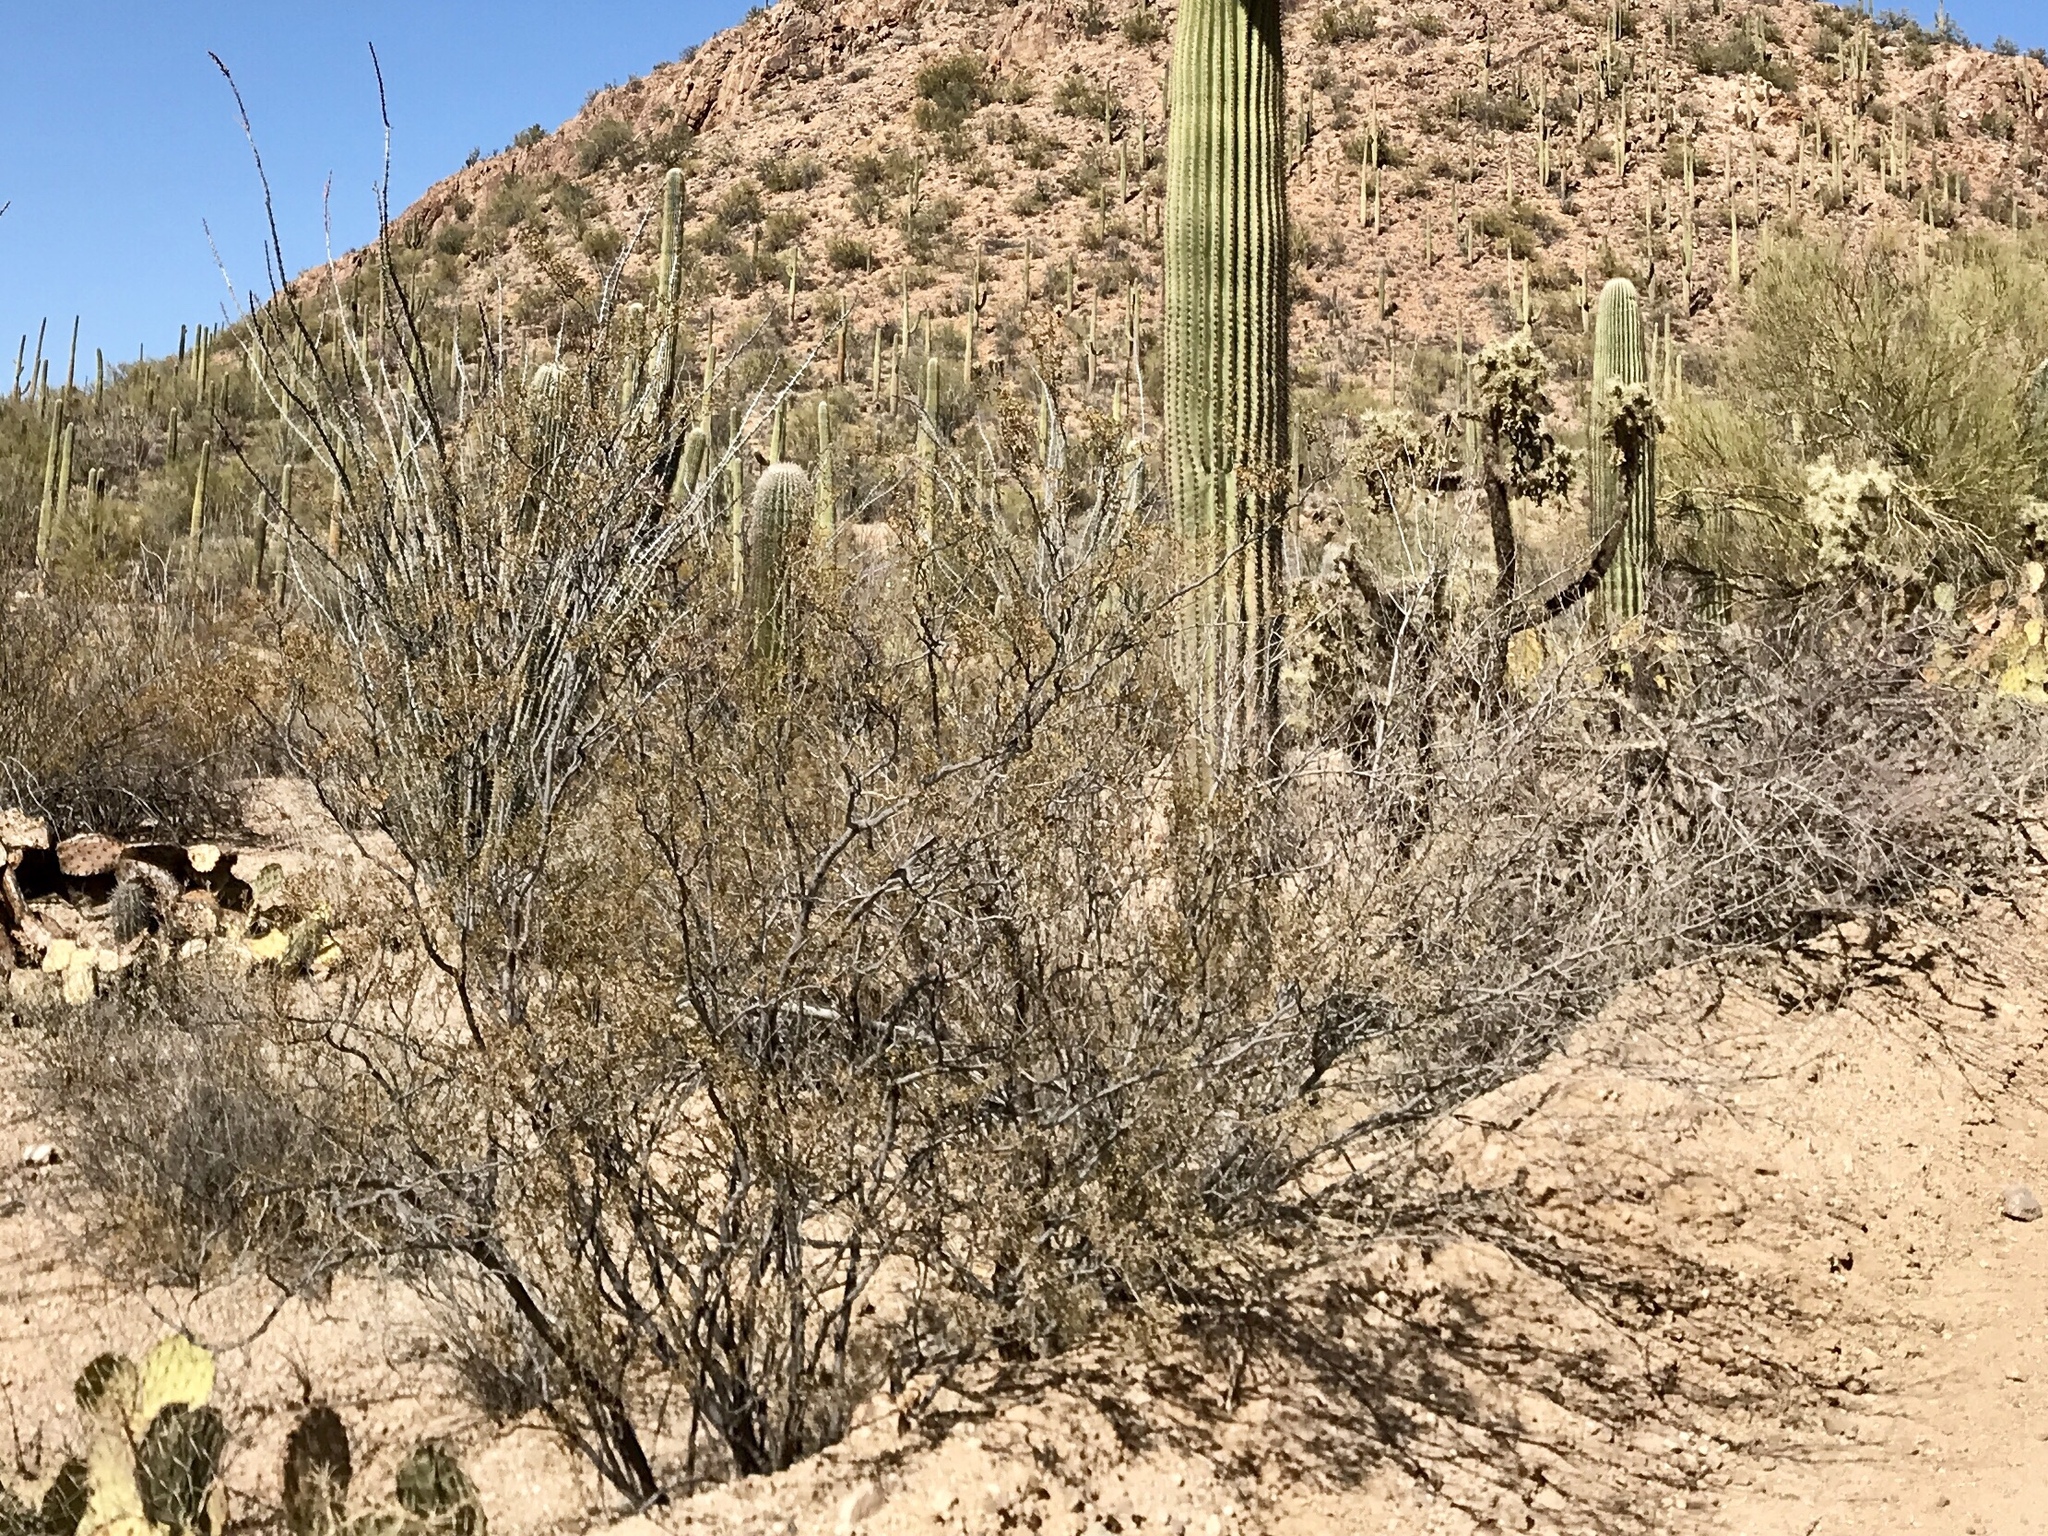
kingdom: Plantae
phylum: Tracheophyta
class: Magnoliopsida
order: Zygophyllales
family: Zygophyllaceae
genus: Larrea
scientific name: Larrea tridentata
